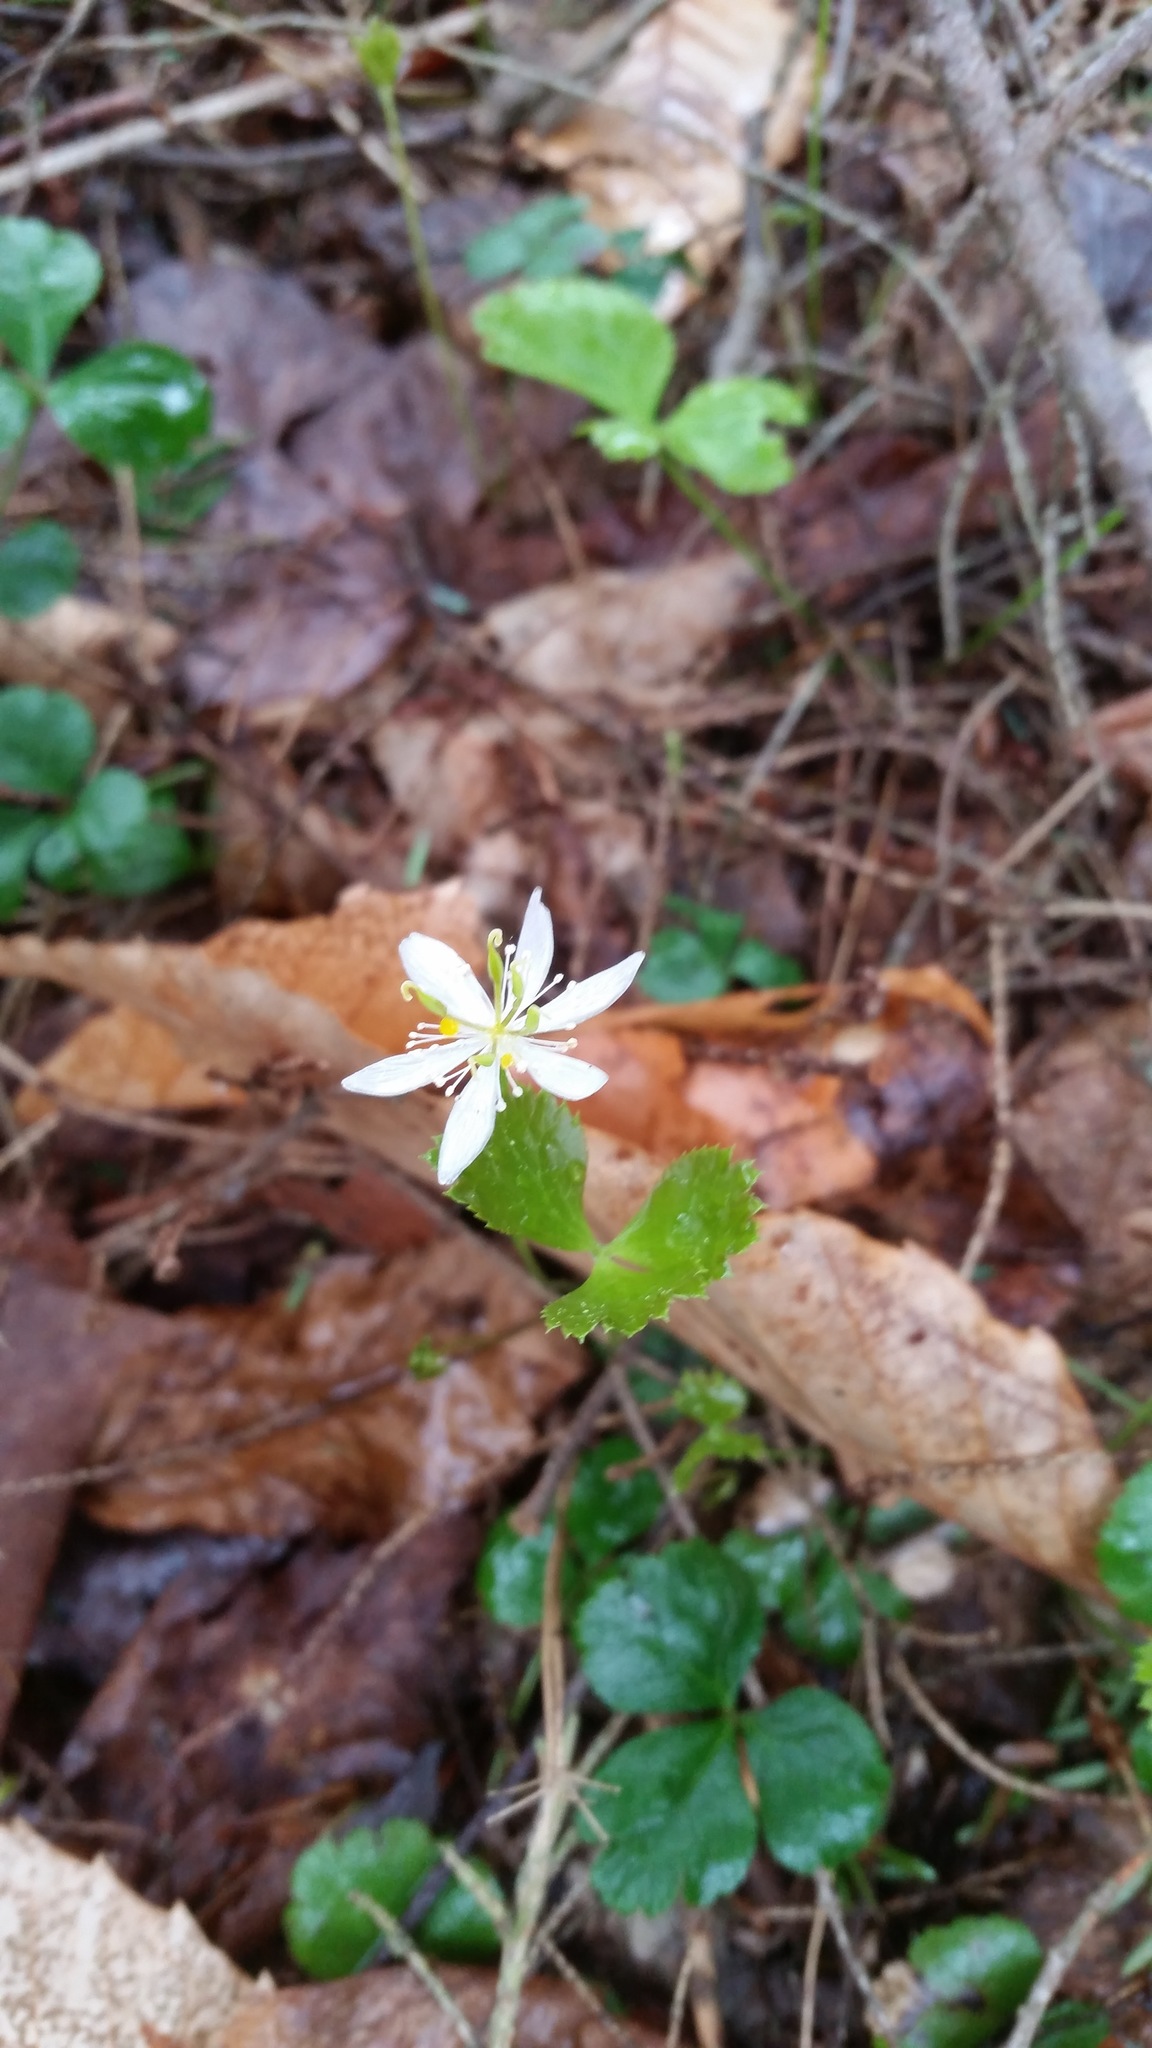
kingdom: Plantae
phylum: Tracheophyta
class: Magnoliopsida
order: Ranunculales
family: Ranunculaceae
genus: Coptis
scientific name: Coptis trifolia
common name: Canker-root
